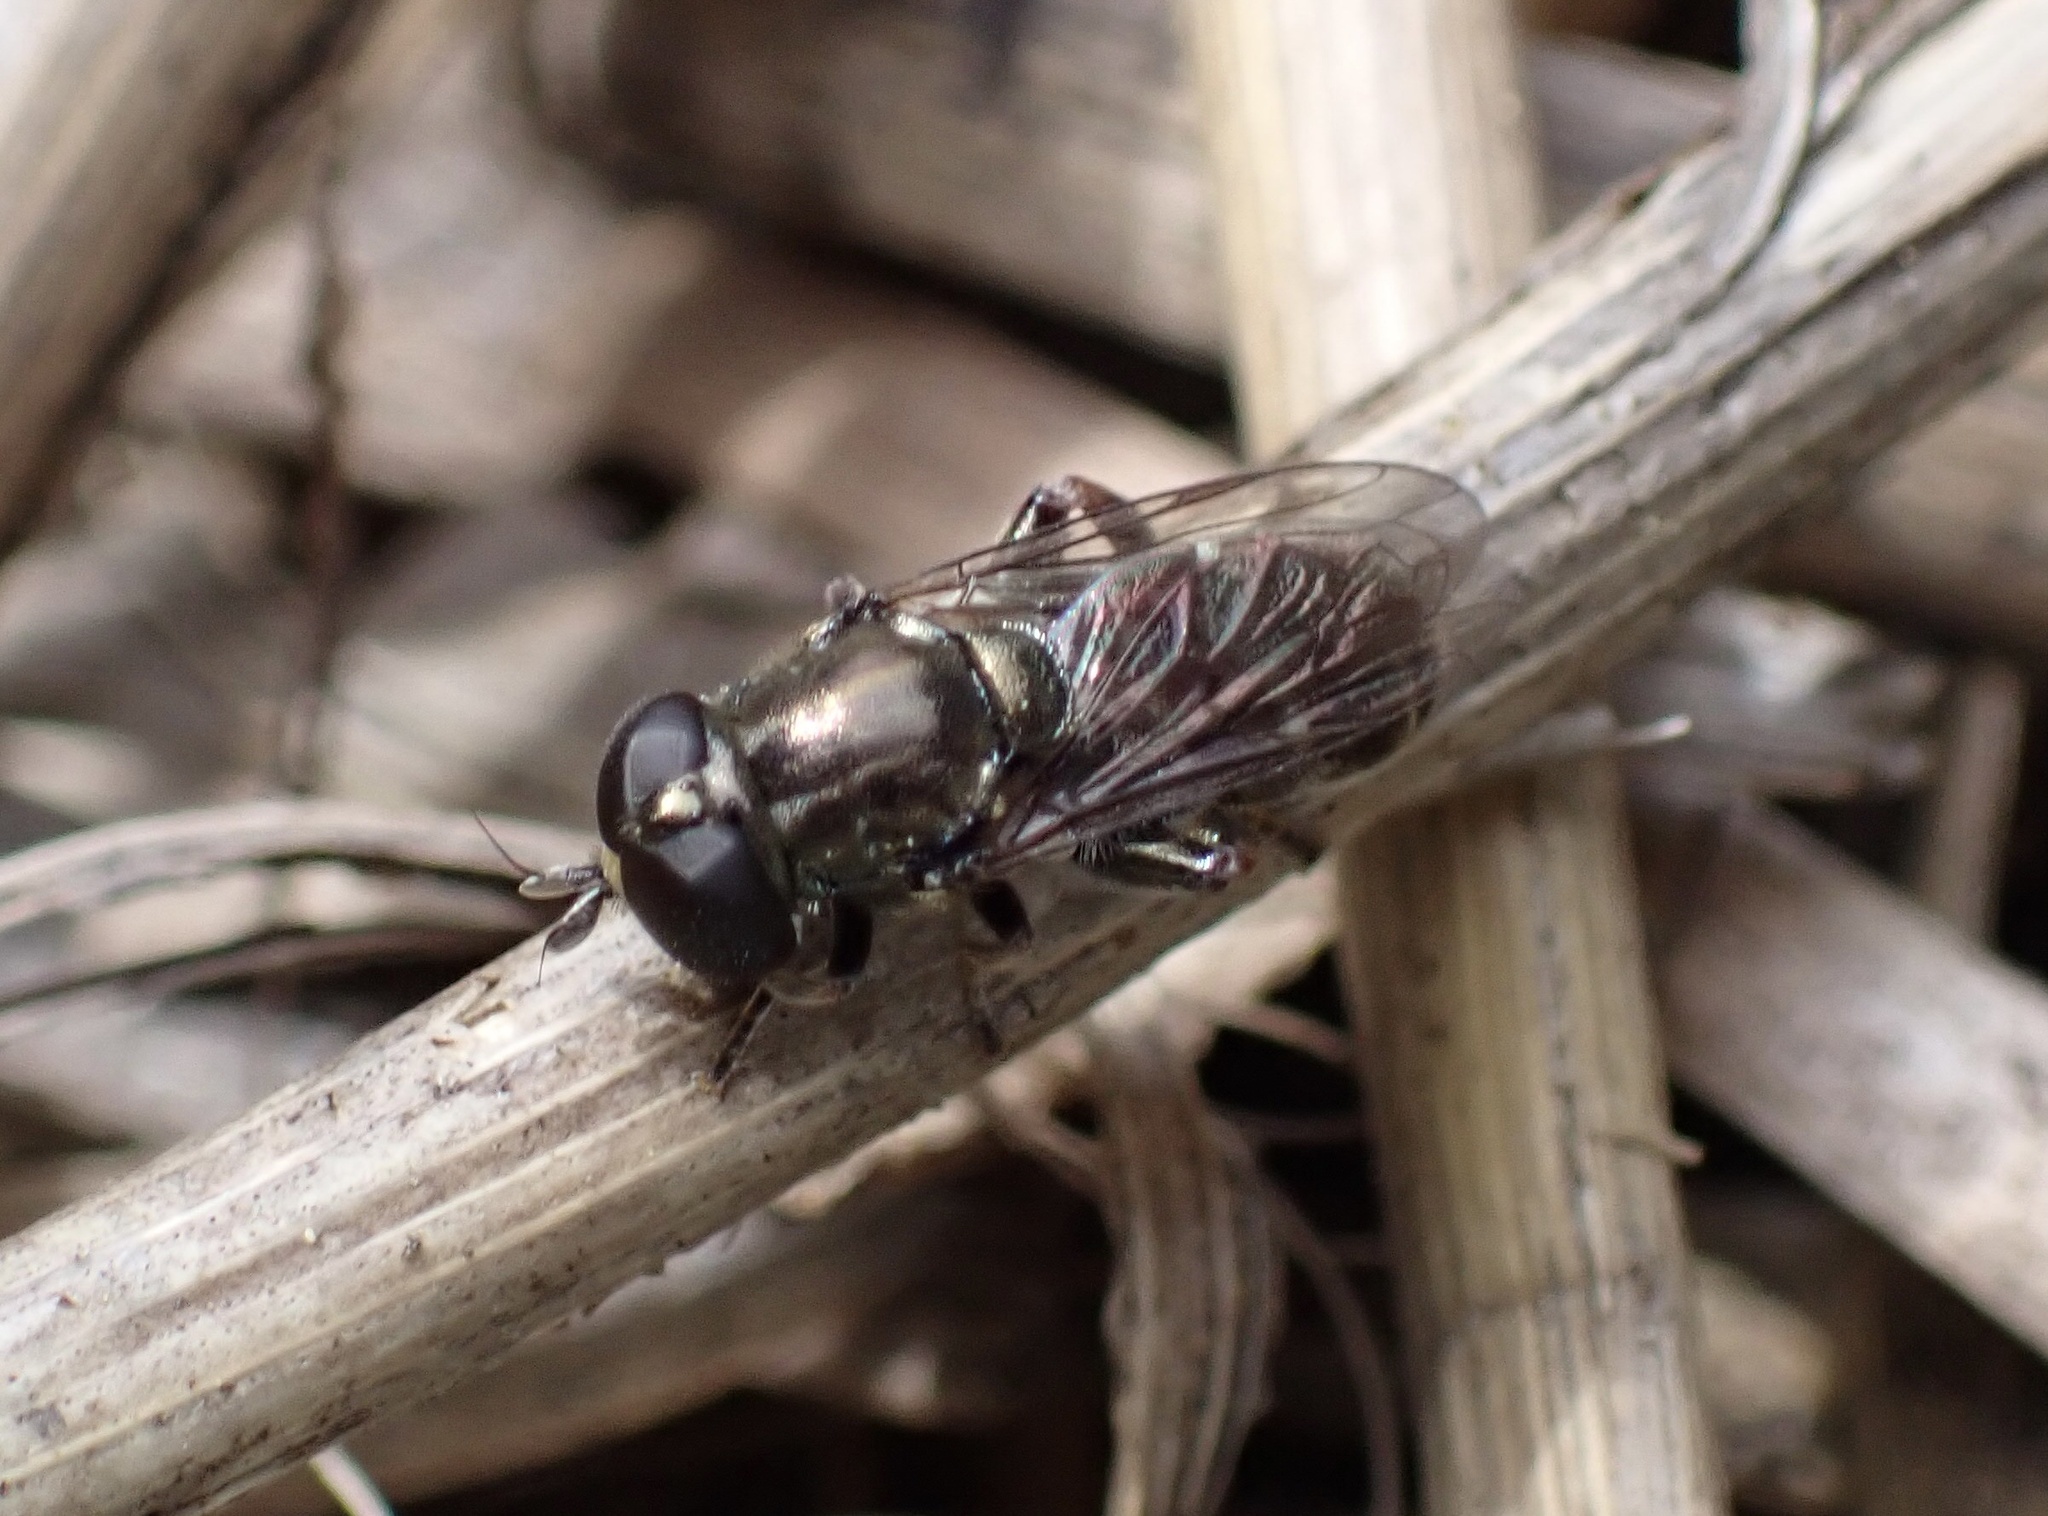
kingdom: Animalia
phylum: Arthropoda
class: Insecta
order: Diptera
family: Syrphidae
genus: Eumerus
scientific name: Eumerus
